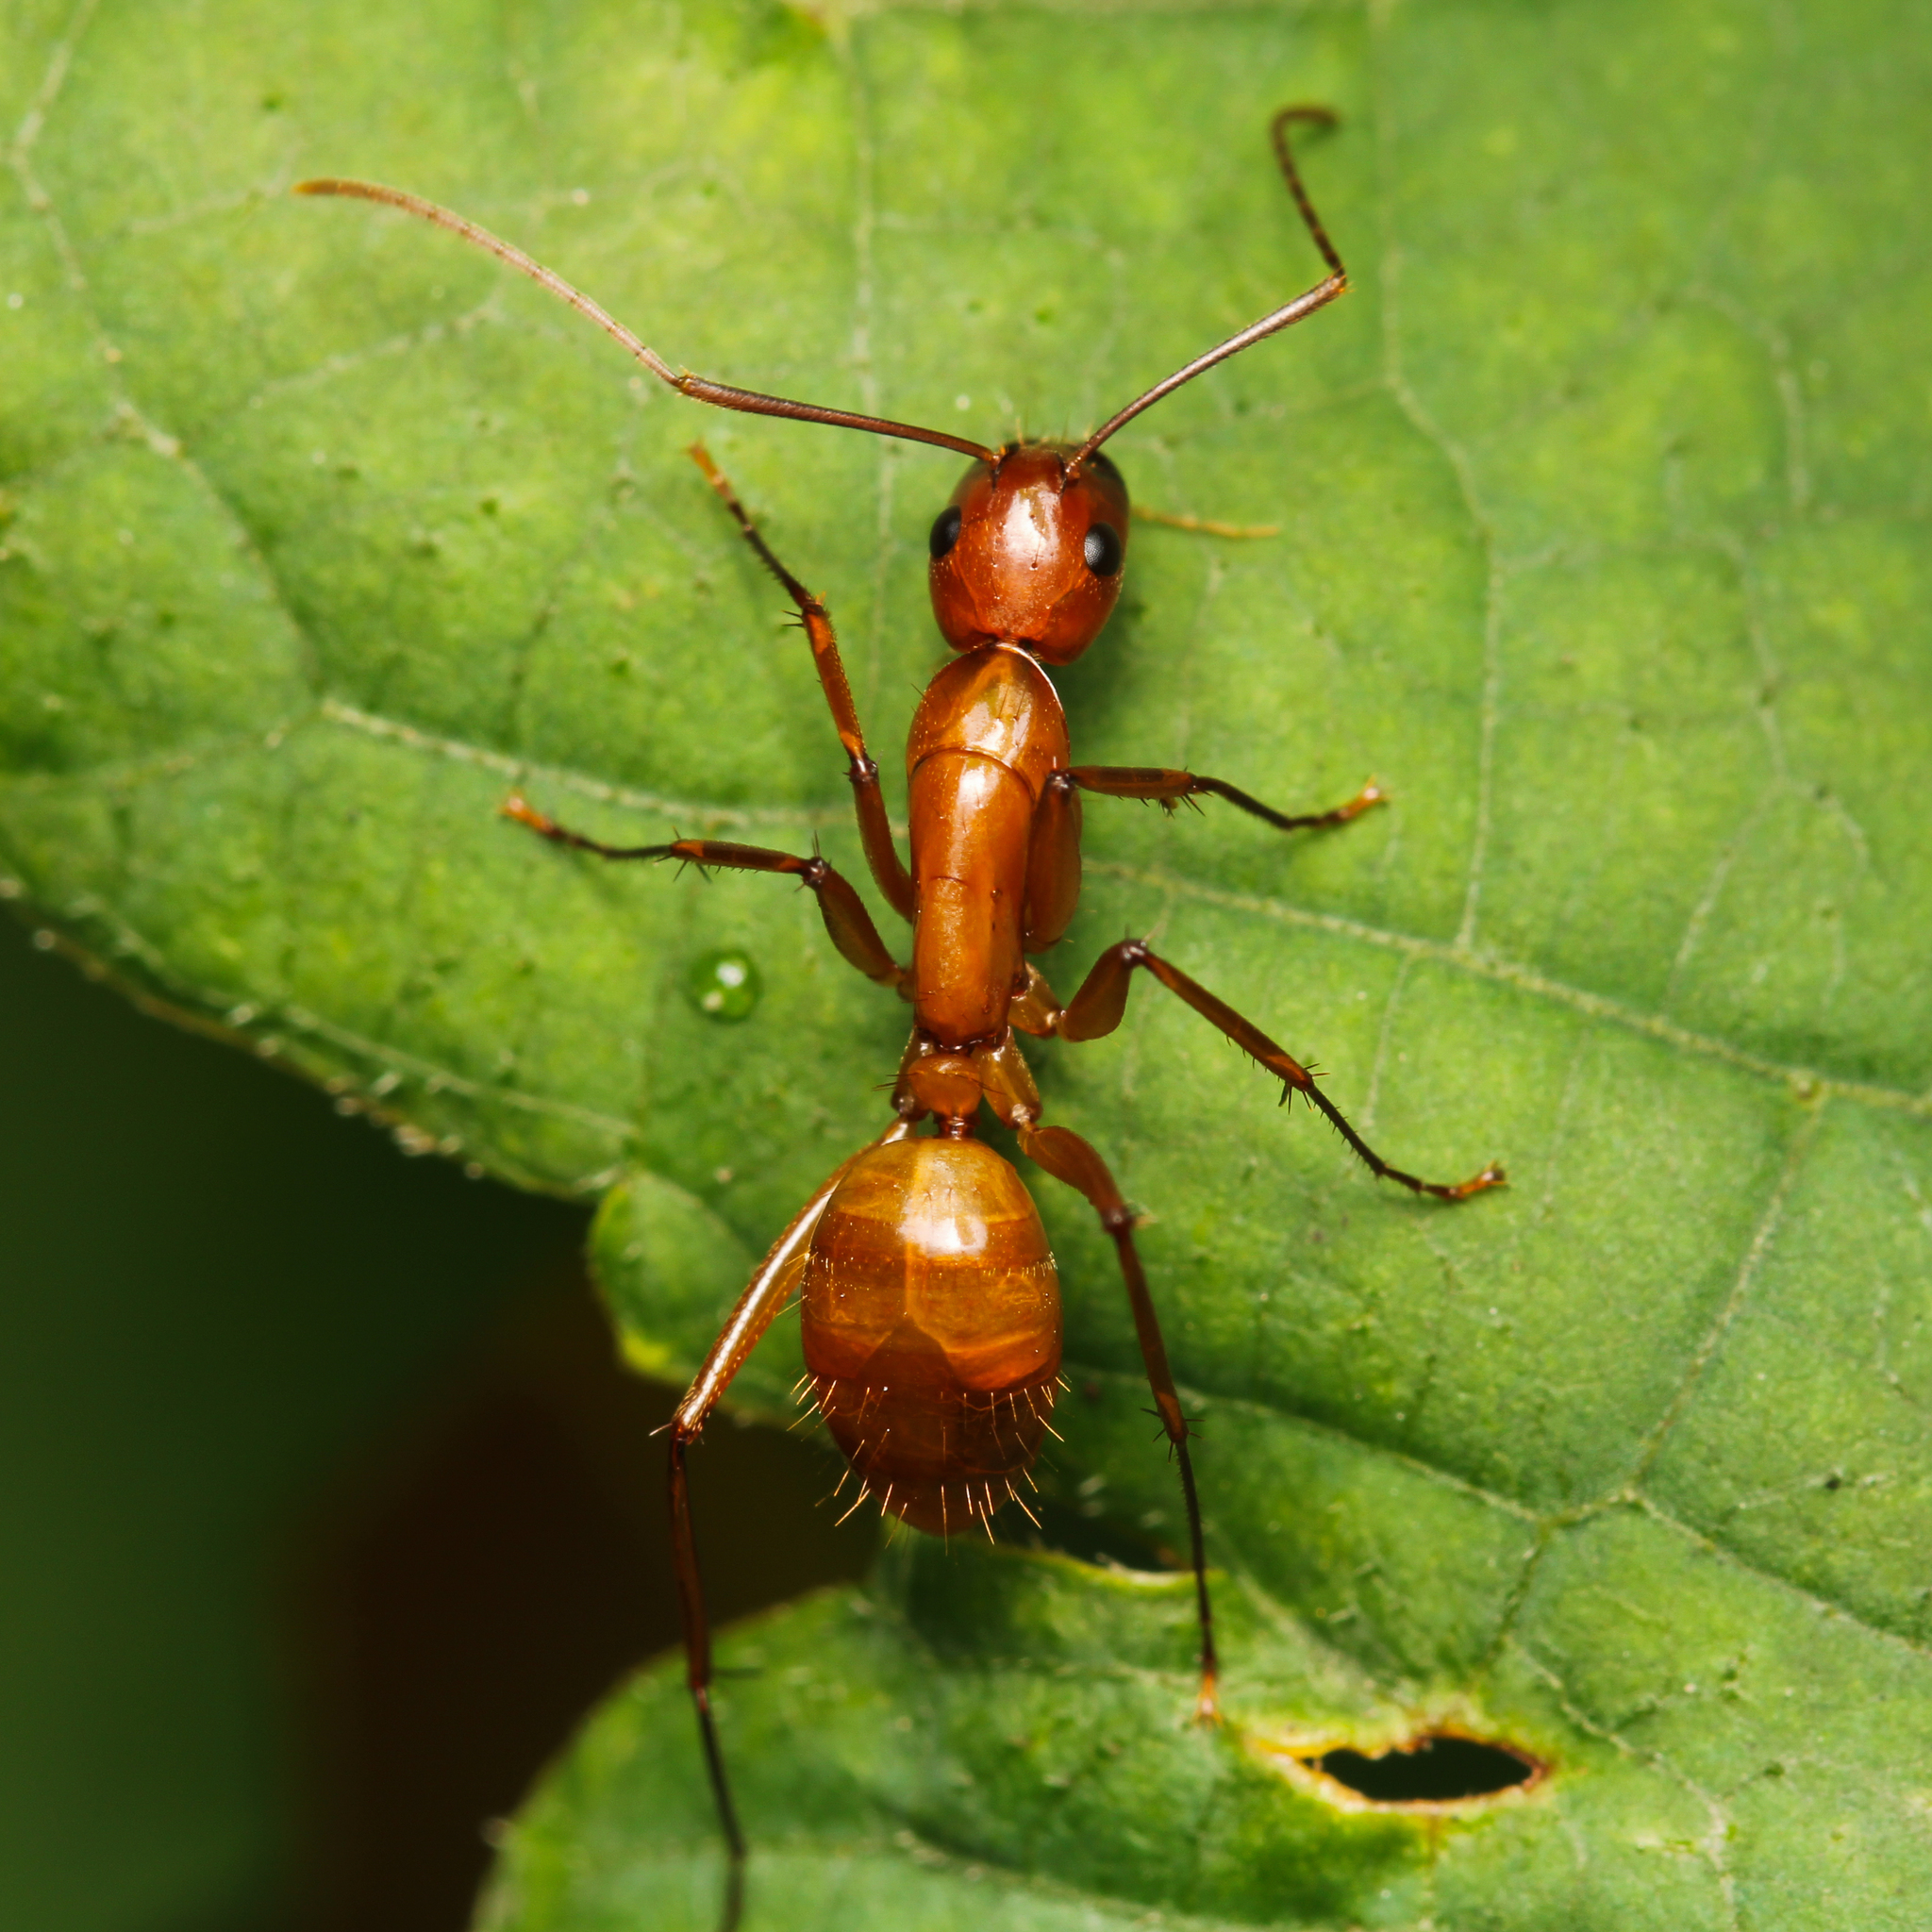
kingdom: Animalia
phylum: Arthropoda
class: Insecta
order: Hymenoptera
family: Formicidae
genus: Camponotus
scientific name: Camponotus castaneus
